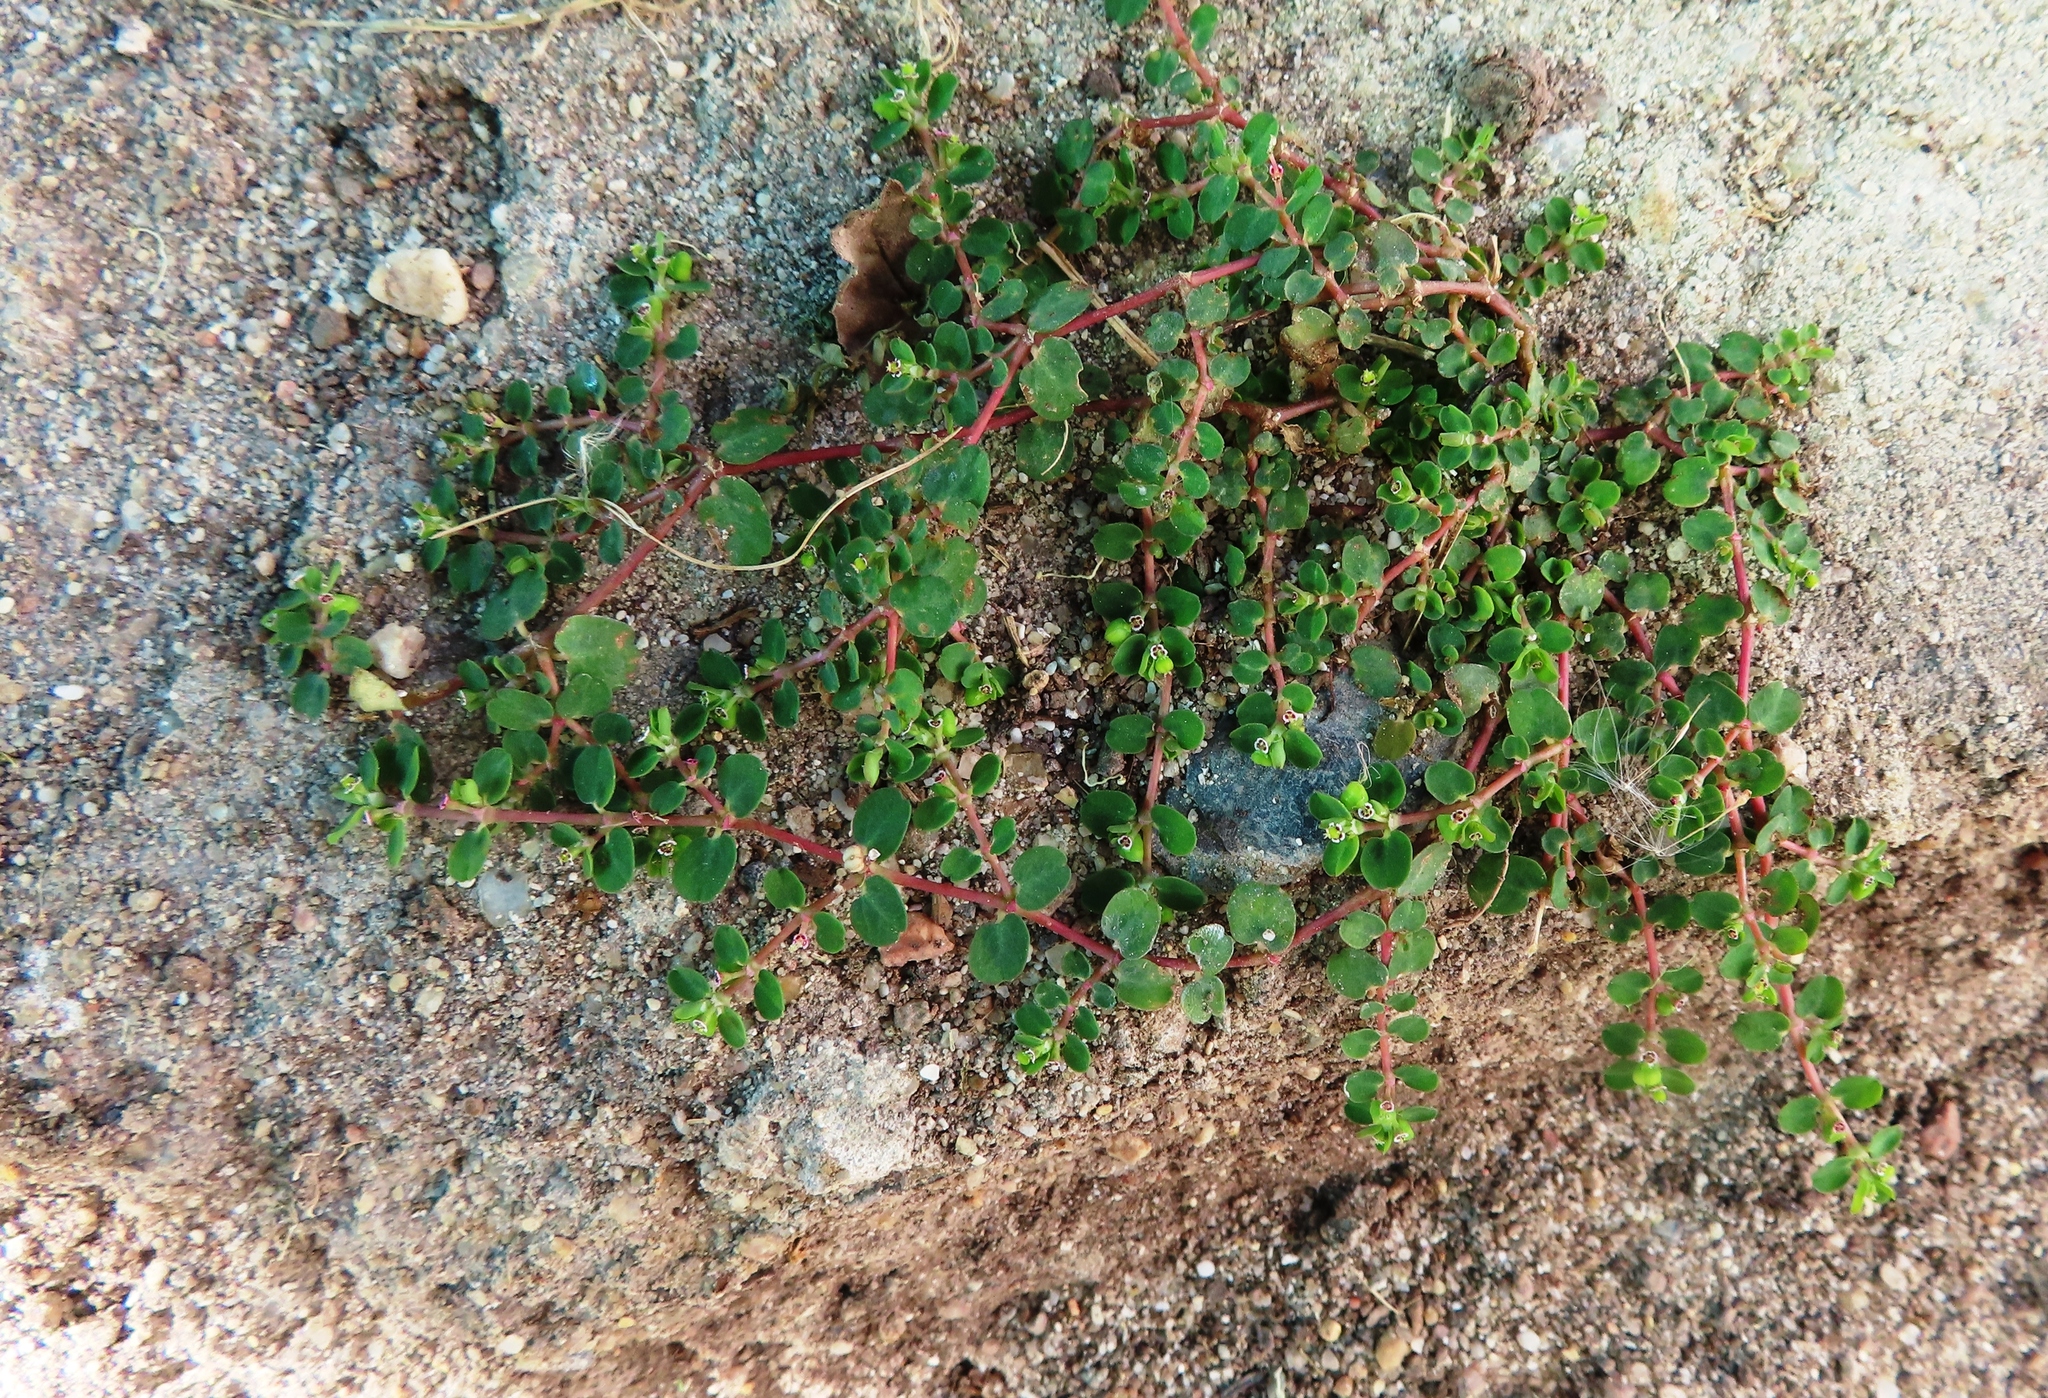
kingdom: Plantae
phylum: Tracheophyta
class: Magnoliopsida
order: Malpighiales
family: Euphorbiaceae
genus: Euphorbia
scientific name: Euphorbia serpens
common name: Matted sandmat
